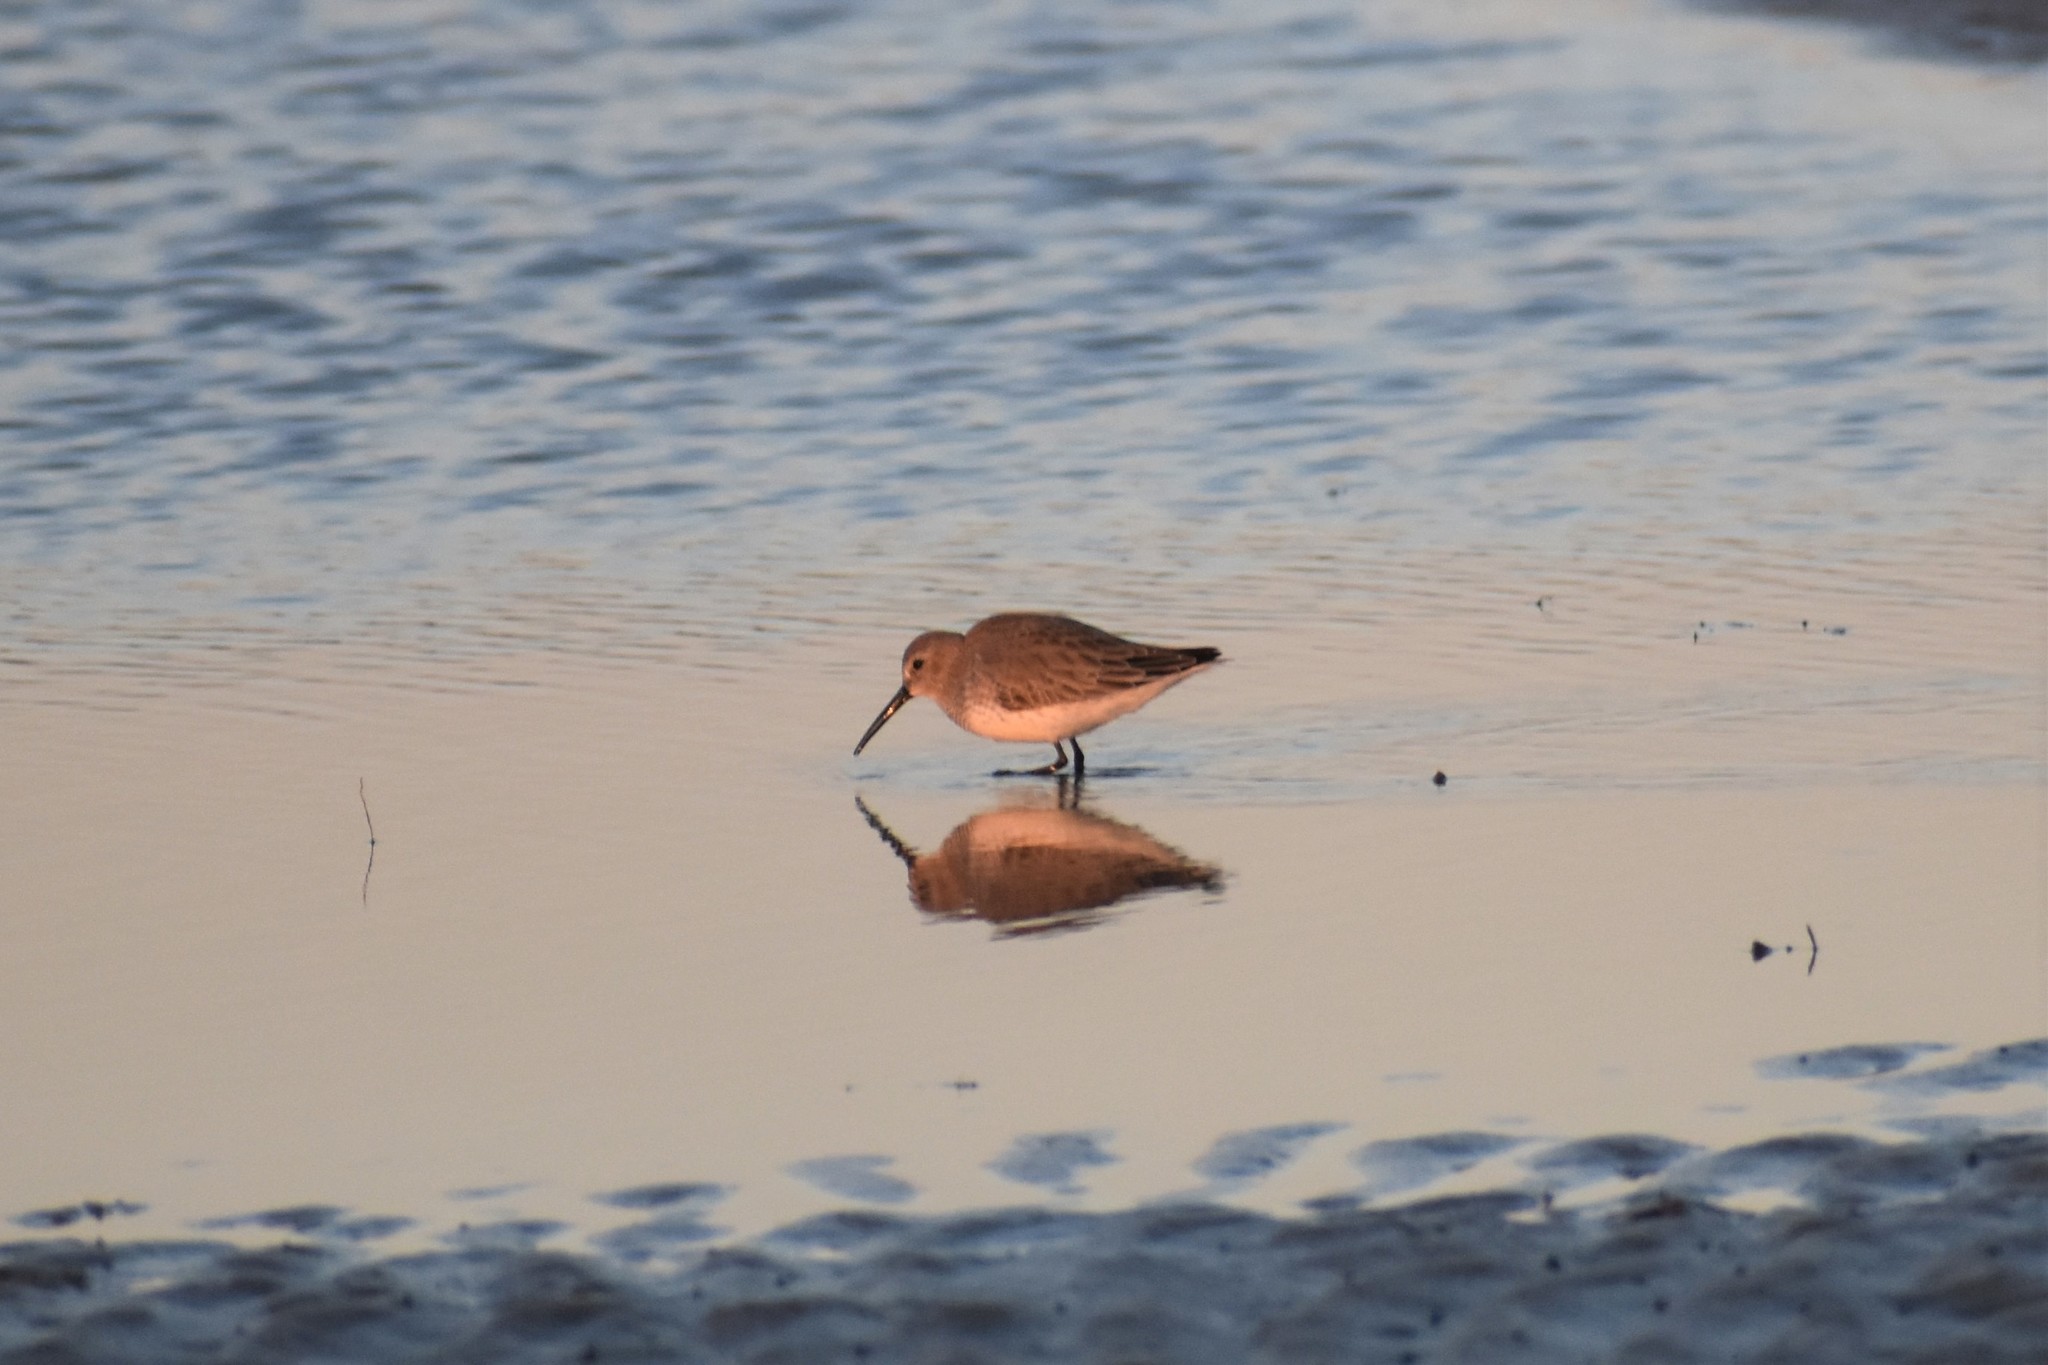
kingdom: Animalia
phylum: Chordata
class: Aves
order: Charadriiformes
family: Scolopacidae
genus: Calidris
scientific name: Calidris alpina
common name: Dunlin
